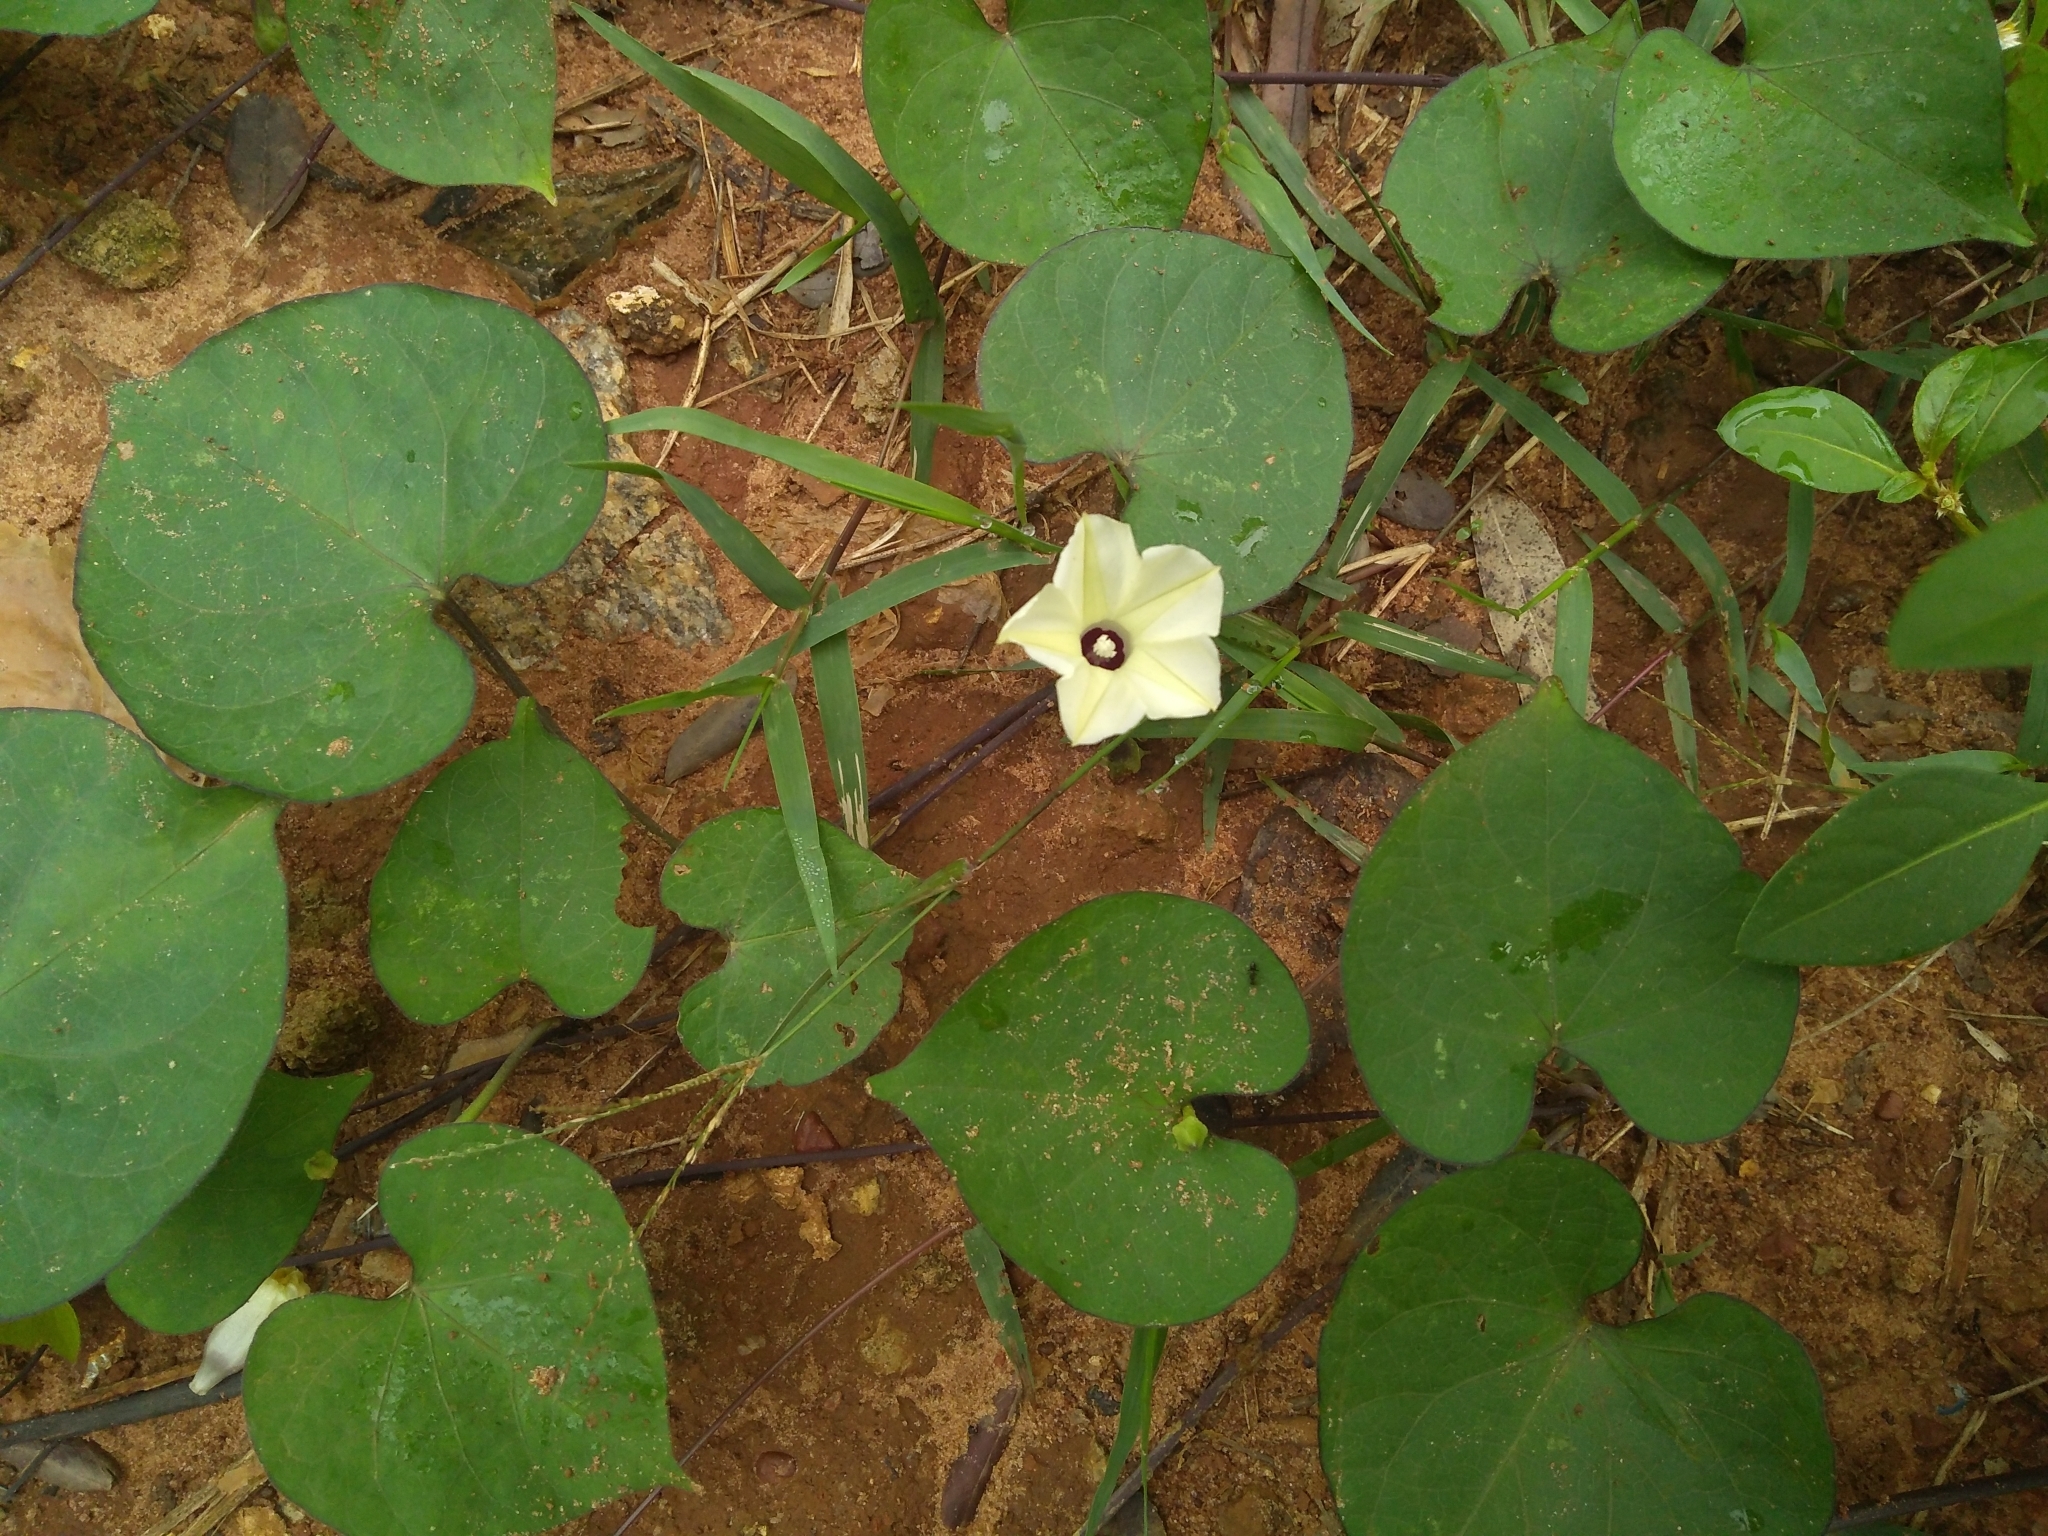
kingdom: Plantae
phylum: Tracheophyta
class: Magnoliopsida
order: Solanales
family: Convolvulaceae
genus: Ipomoea
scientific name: Ipomoea obscura
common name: Obscure morning-glory
